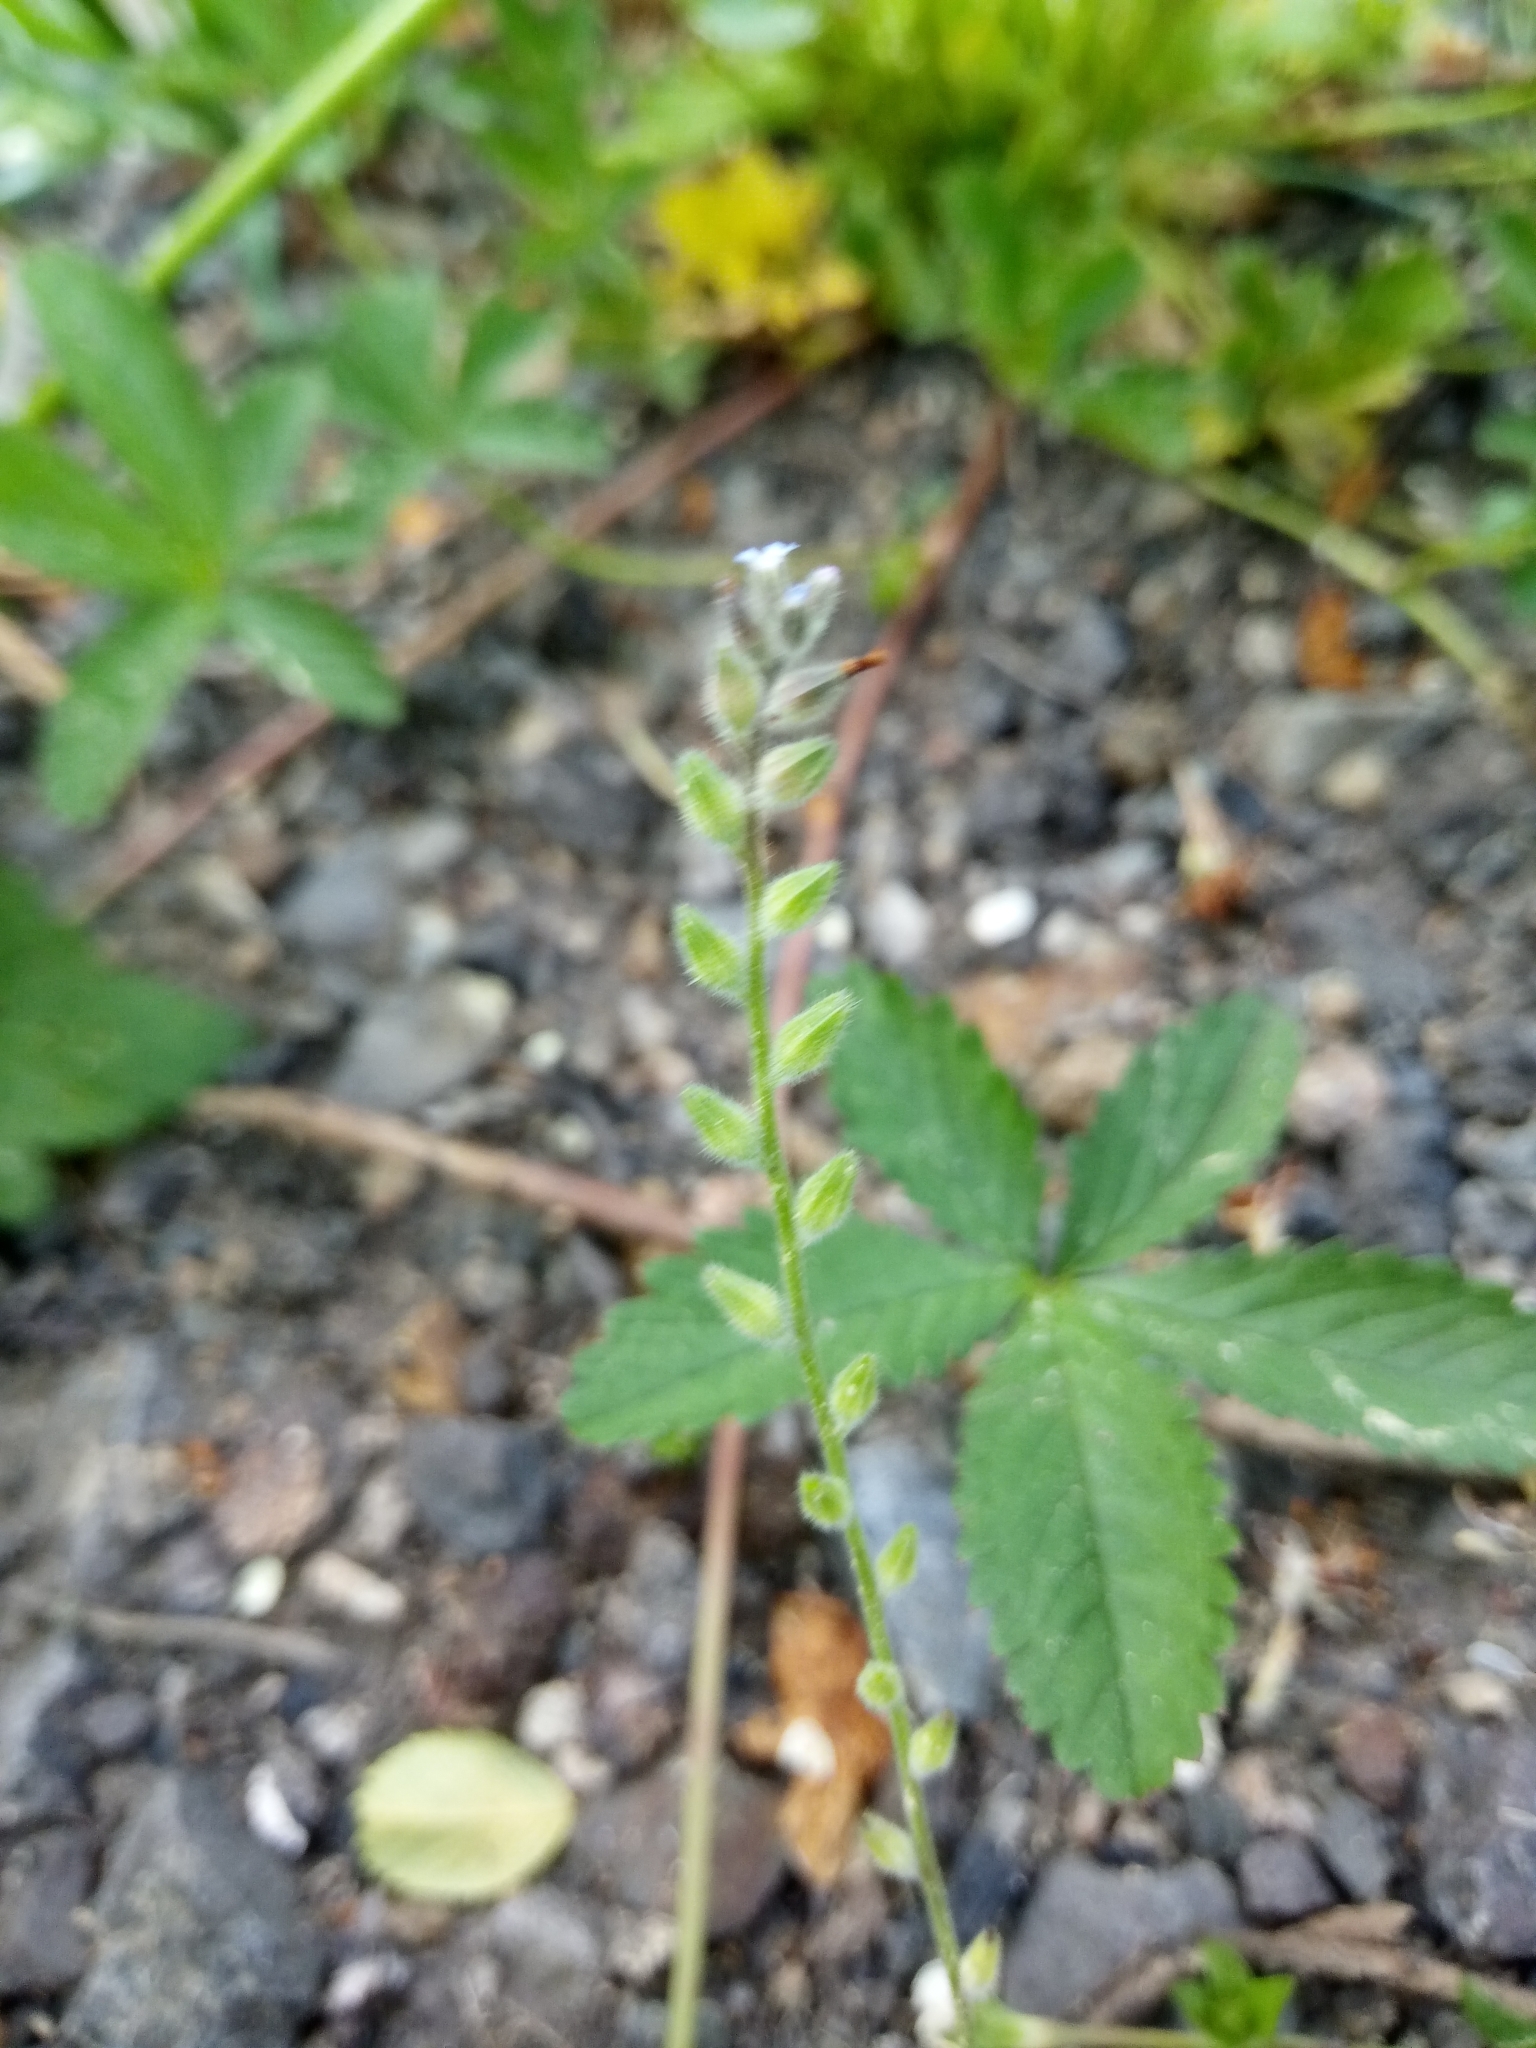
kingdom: Plantae
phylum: Tracheophyta
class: Magnoliopsida
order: Boraginales
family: Boraginaceae
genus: Myosotis
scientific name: Myosotis stricta
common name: Strict forget-me-not
